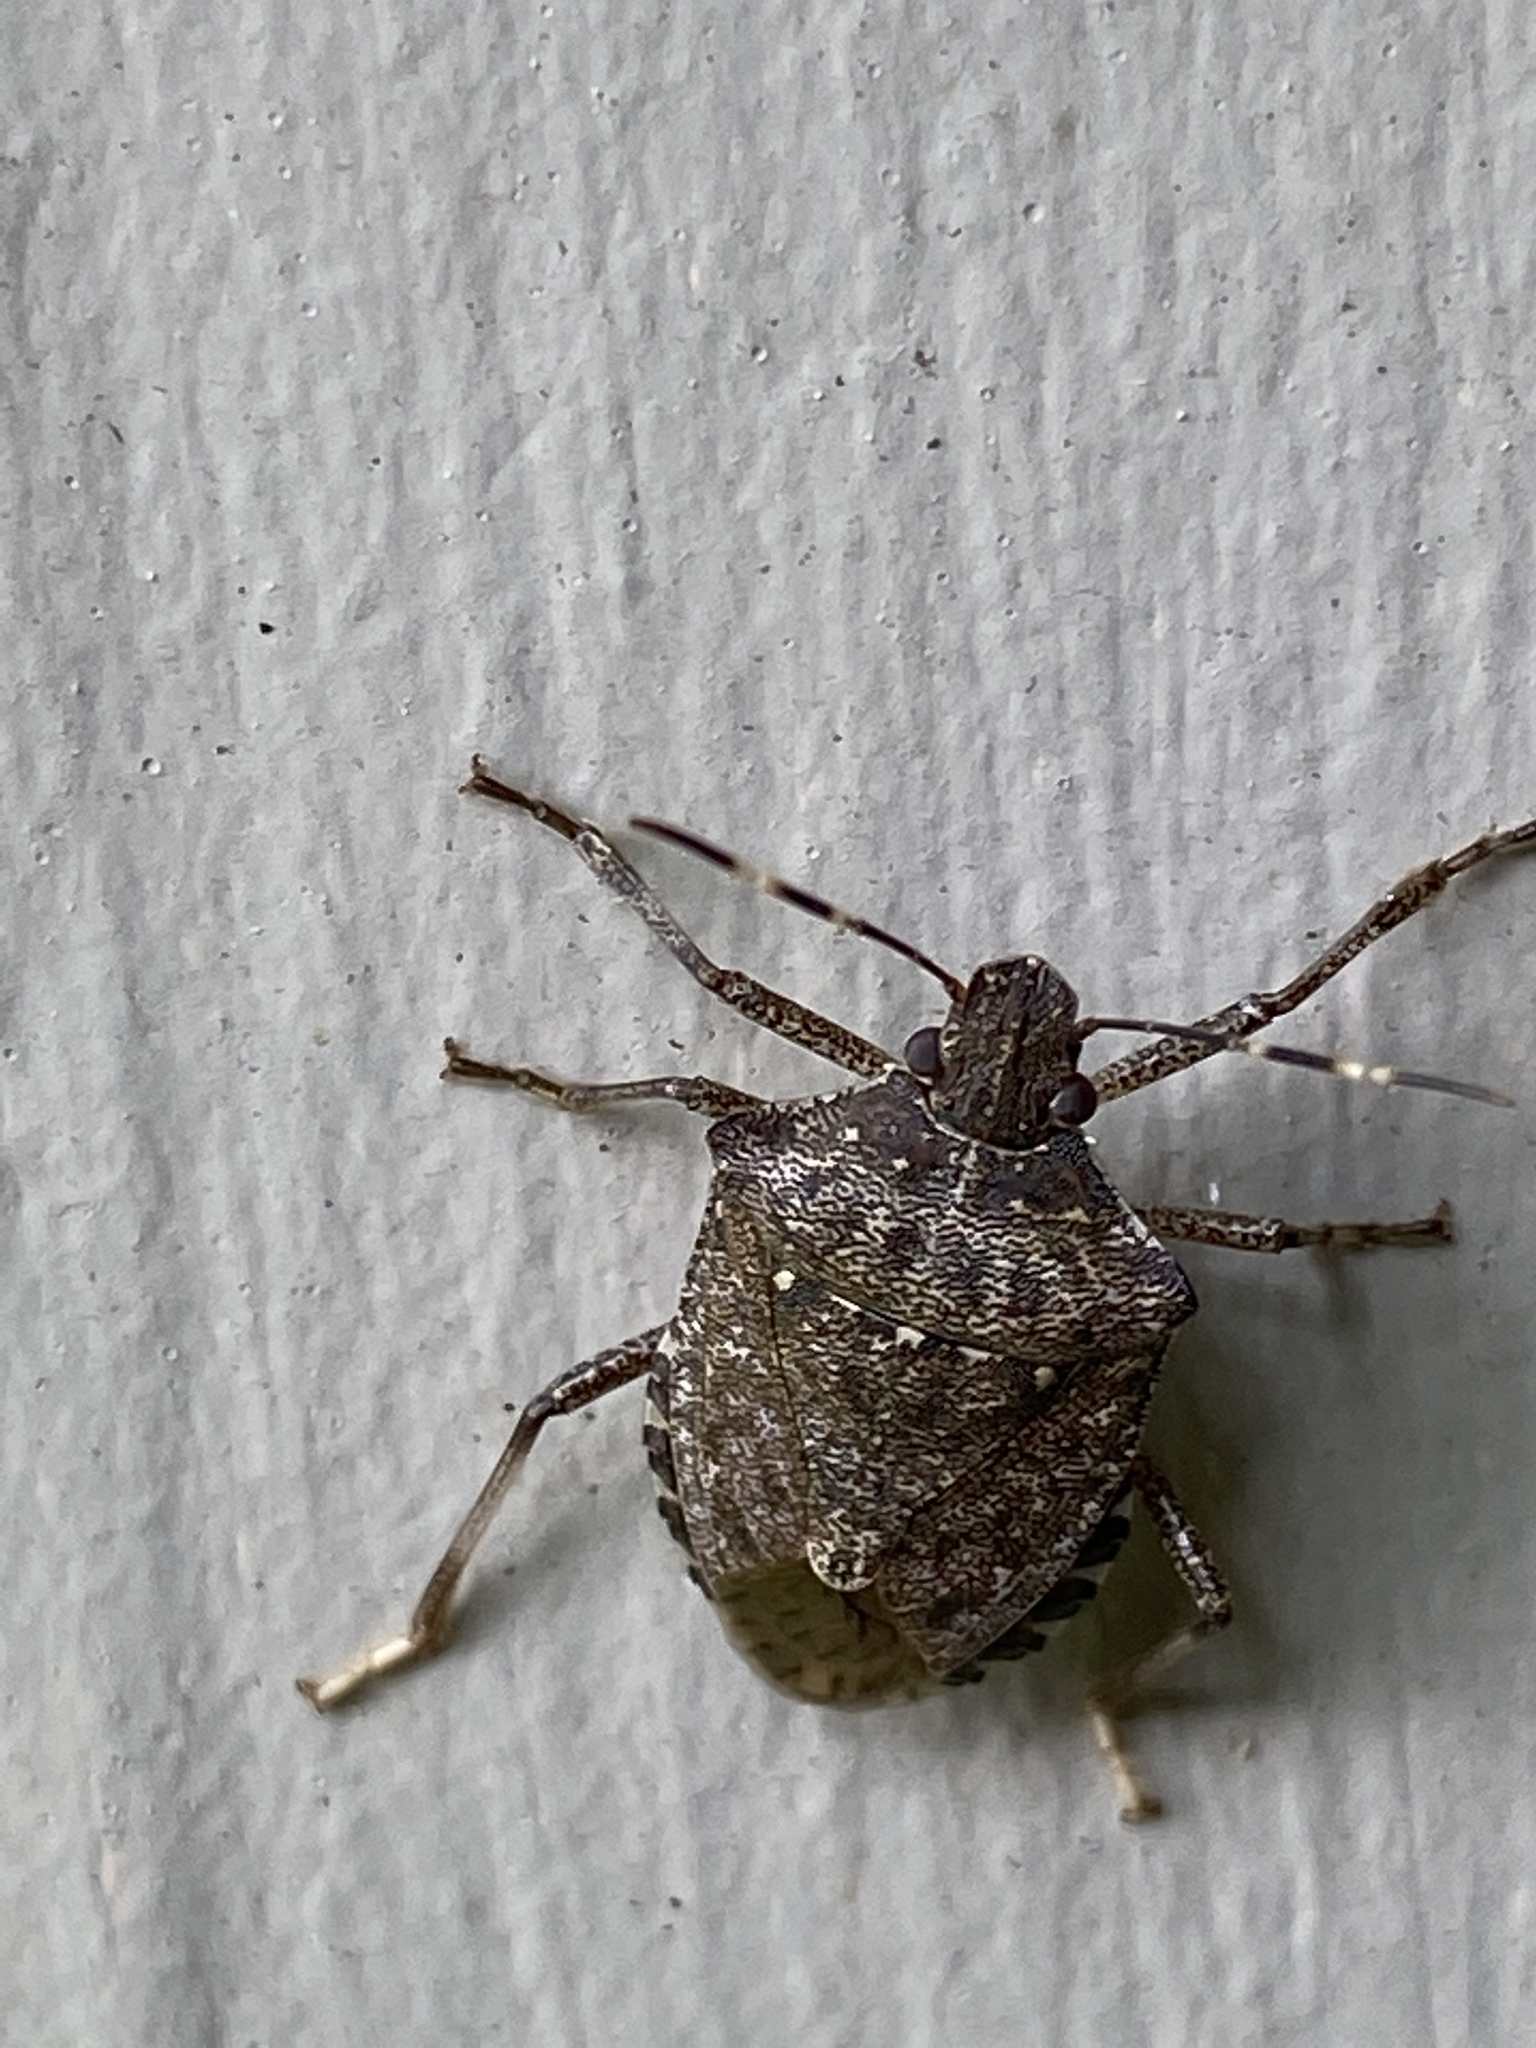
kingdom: Animalia
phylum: Arthropoda
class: Insecta
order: Hemiptera
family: Pentatomidae
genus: Halyomorpha
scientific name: Halyomorpha halys
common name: Brown marmorated stink bug
